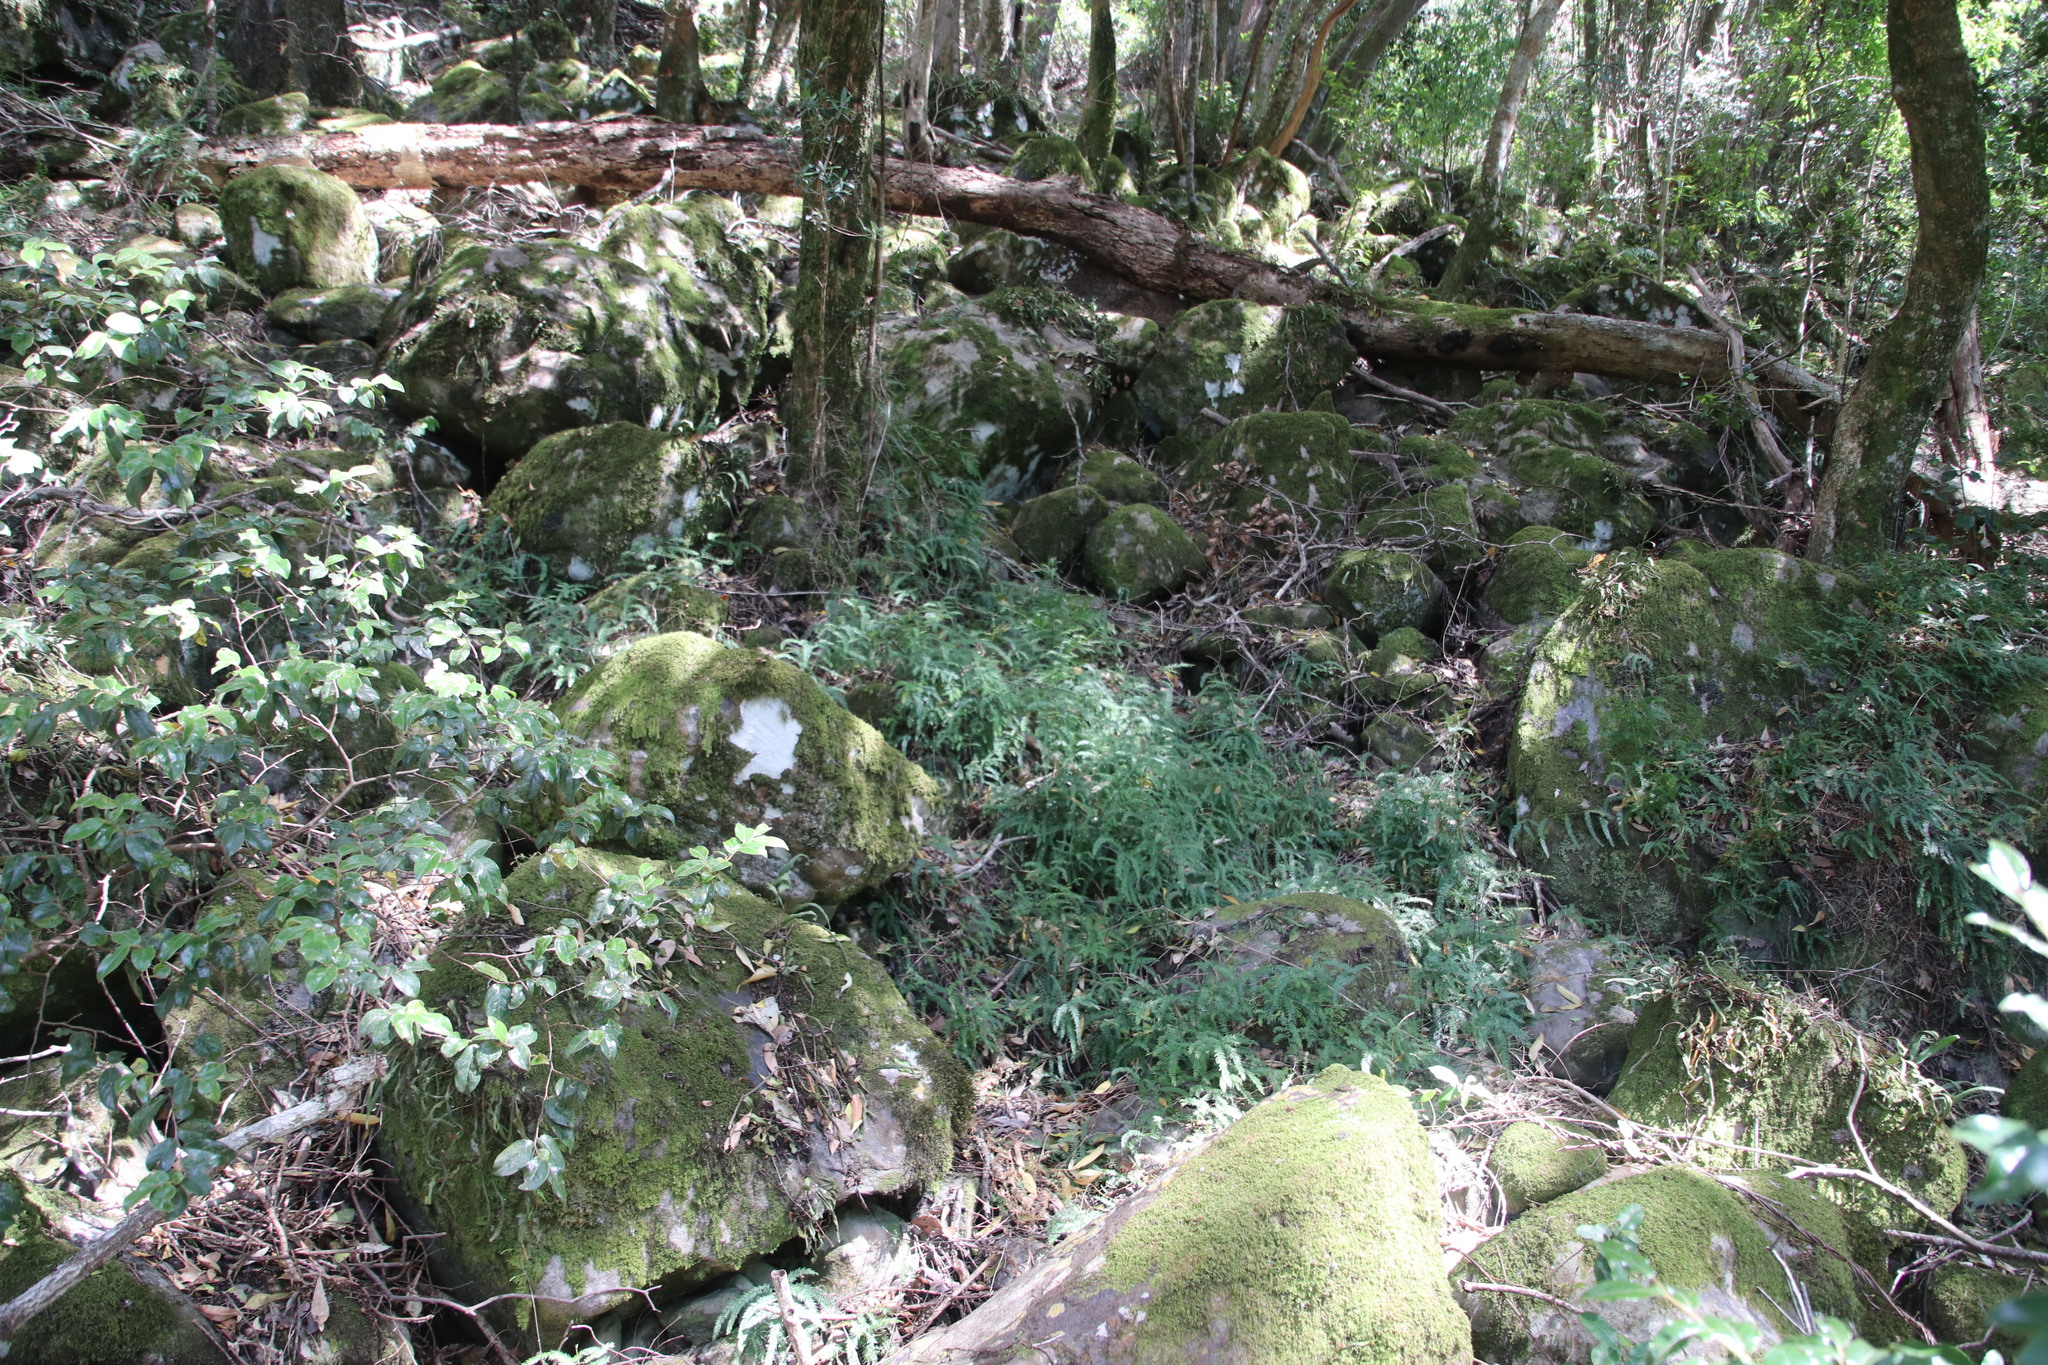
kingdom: Plantae
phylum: Tracheophyta
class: Liliopsida
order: Asparagales
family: Asparagaceae
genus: Asparagus
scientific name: Asparagus scandens
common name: Asparagus-fern
